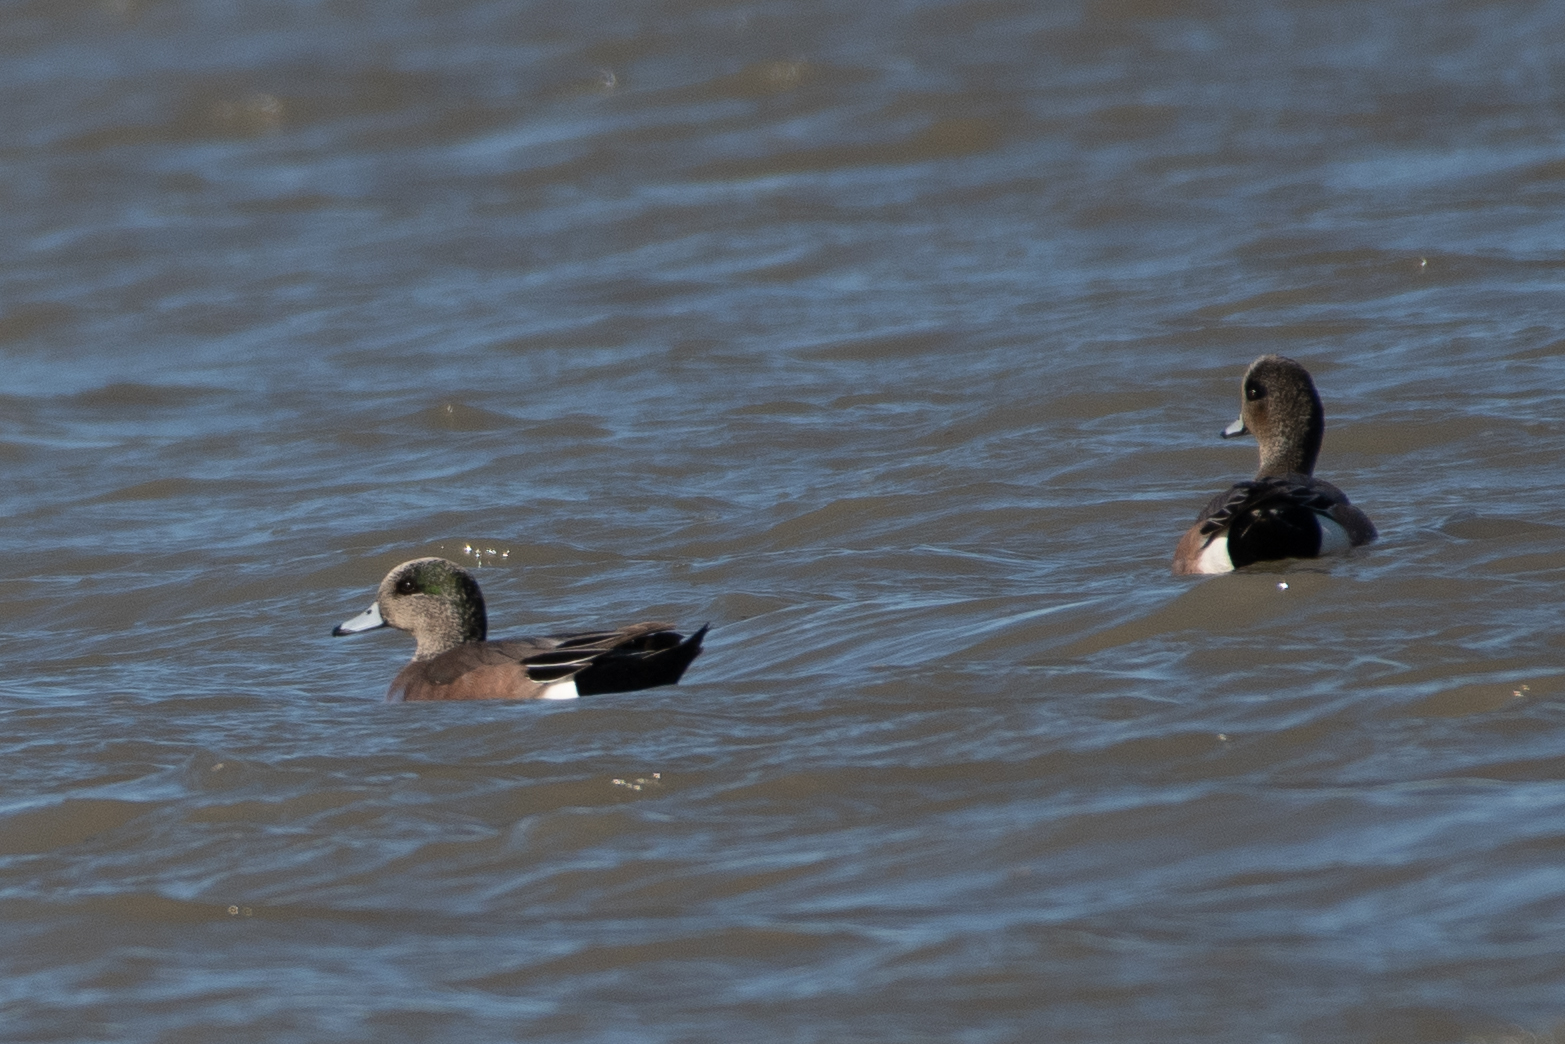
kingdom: Animalia
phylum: Chordata
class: Aves
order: Anseriformes
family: Anatidae
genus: Mareca
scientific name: Mareca americana
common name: American wigeon
